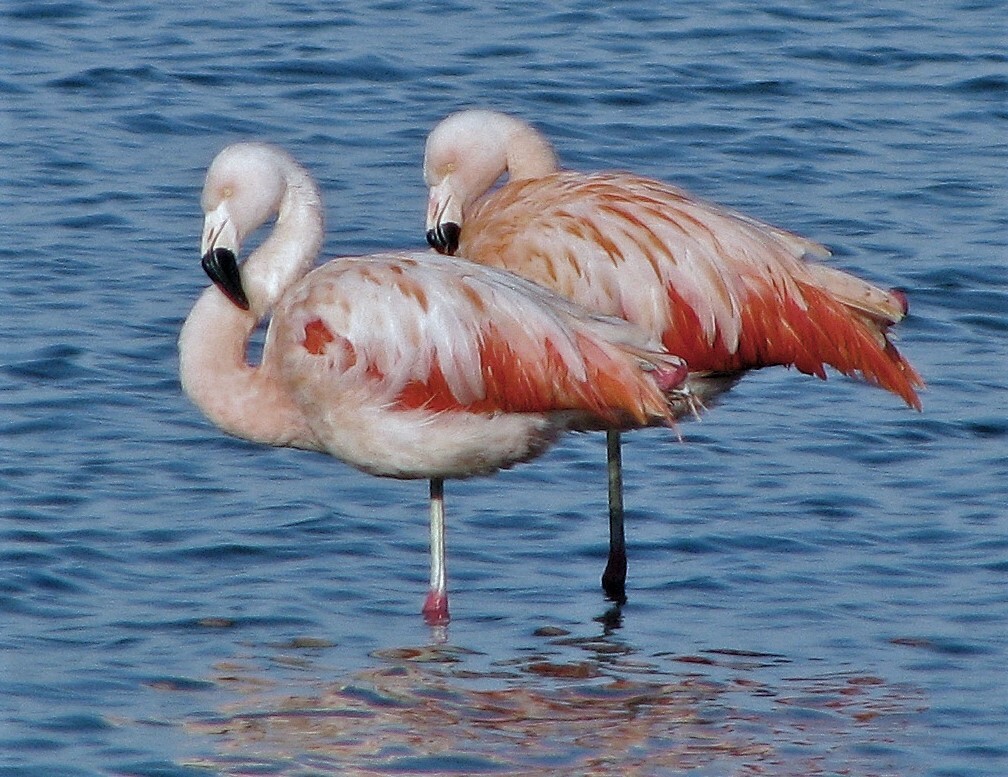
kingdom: Animalia
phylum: Chordata
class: Aves
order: Phoenicopteriformes
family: Phoenicopteridae
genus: Phoenicopterus
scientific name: Phoenicopterus chilensis
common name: Chilean flamingo
